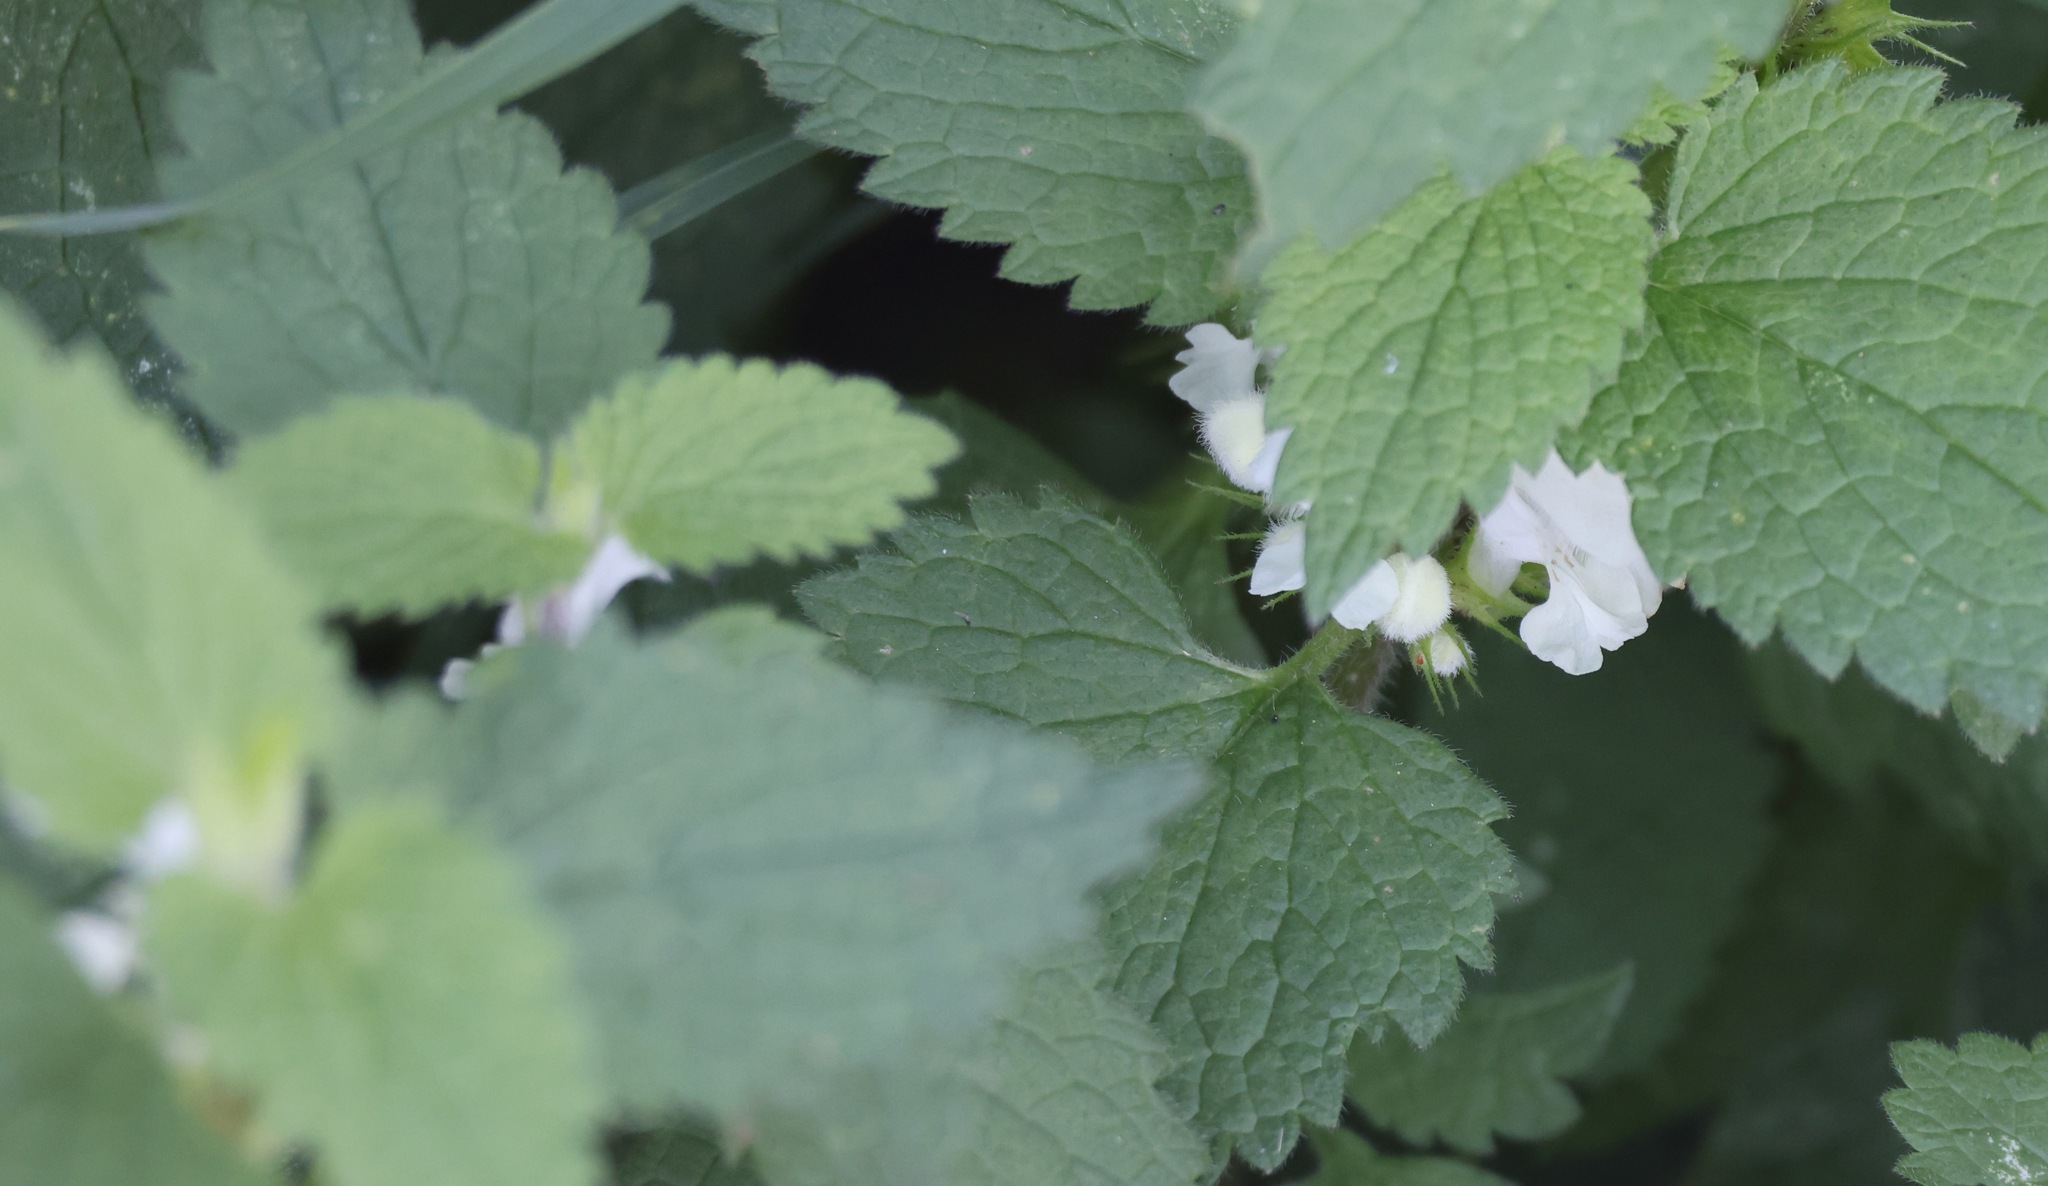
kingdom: Plantae
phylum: Tracheophyta
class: Magnoliopsida
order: Lamiales
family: Lamiaceae
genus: Lamium
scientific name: Lamium album
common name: White dead-nettle
